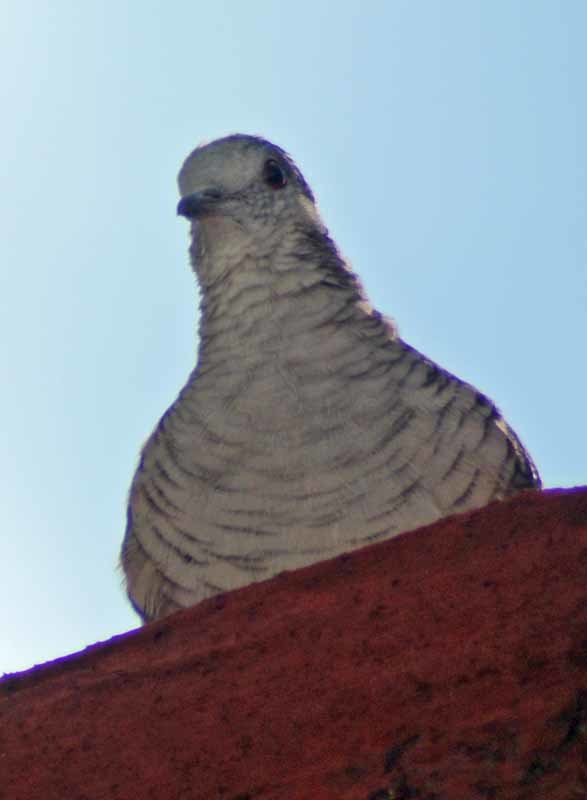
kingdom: Animalia
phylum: Chordata
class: Aves
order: Columbiformes
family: Columbidae
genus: Columbina
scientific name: Columbina inca
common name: Inca dove
